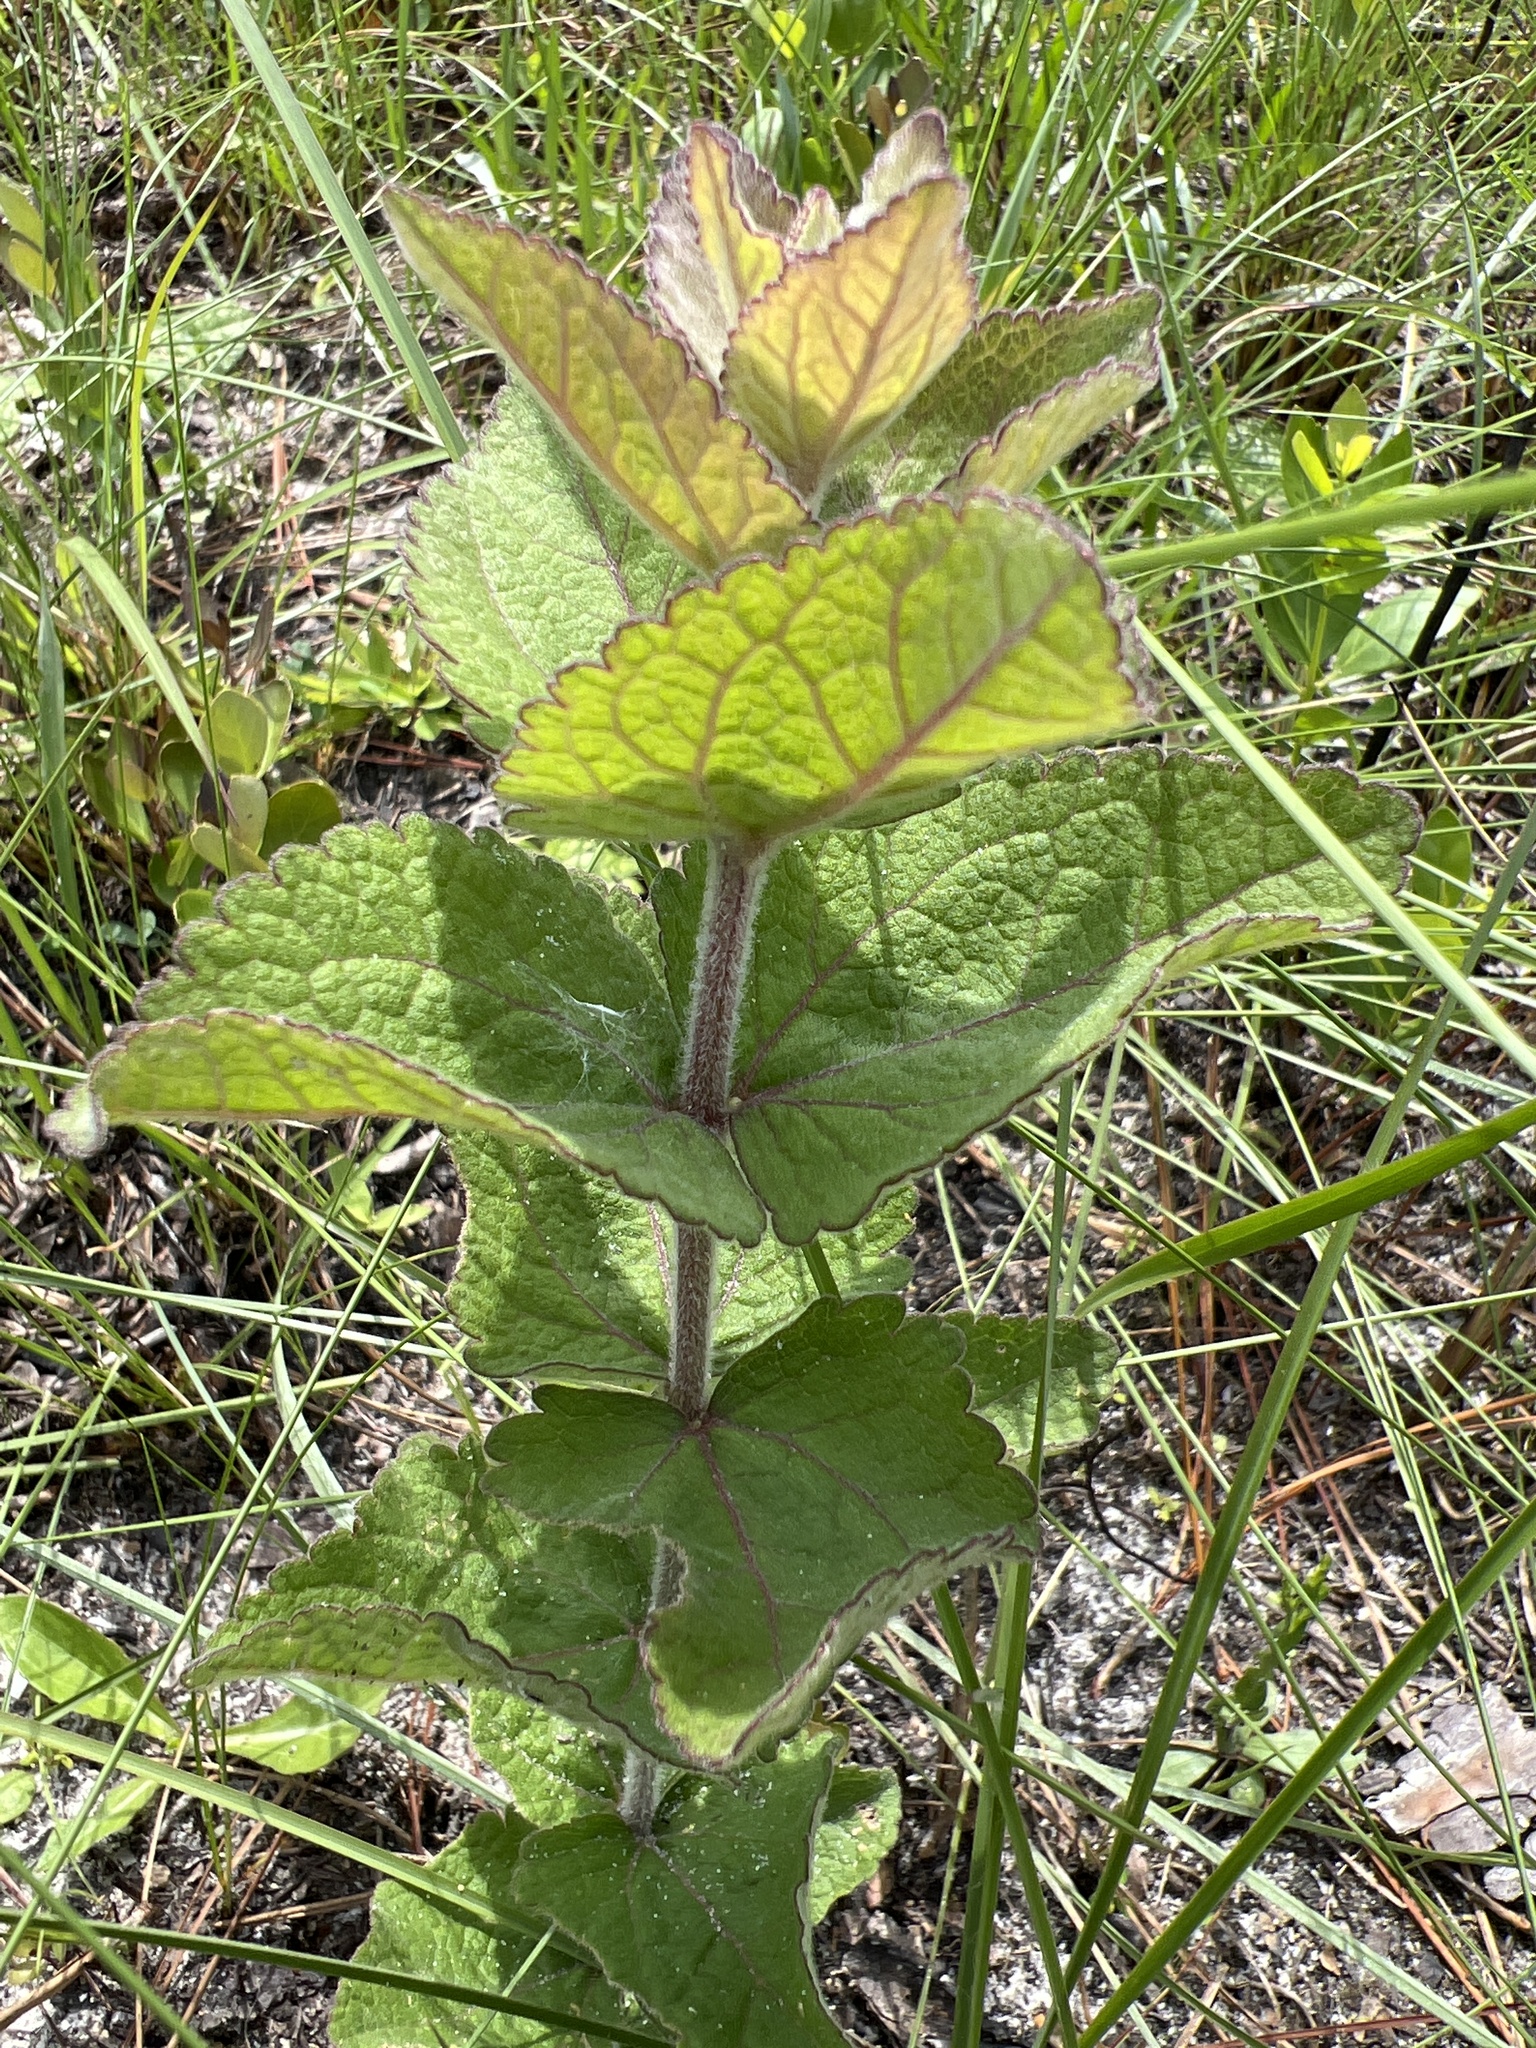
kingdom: Plantae
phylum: Tracheophyta
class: Magnoliopsida
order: Asterales
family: Asteraceae
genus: Eupatorium
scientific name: Eupatorium rotundifolium
